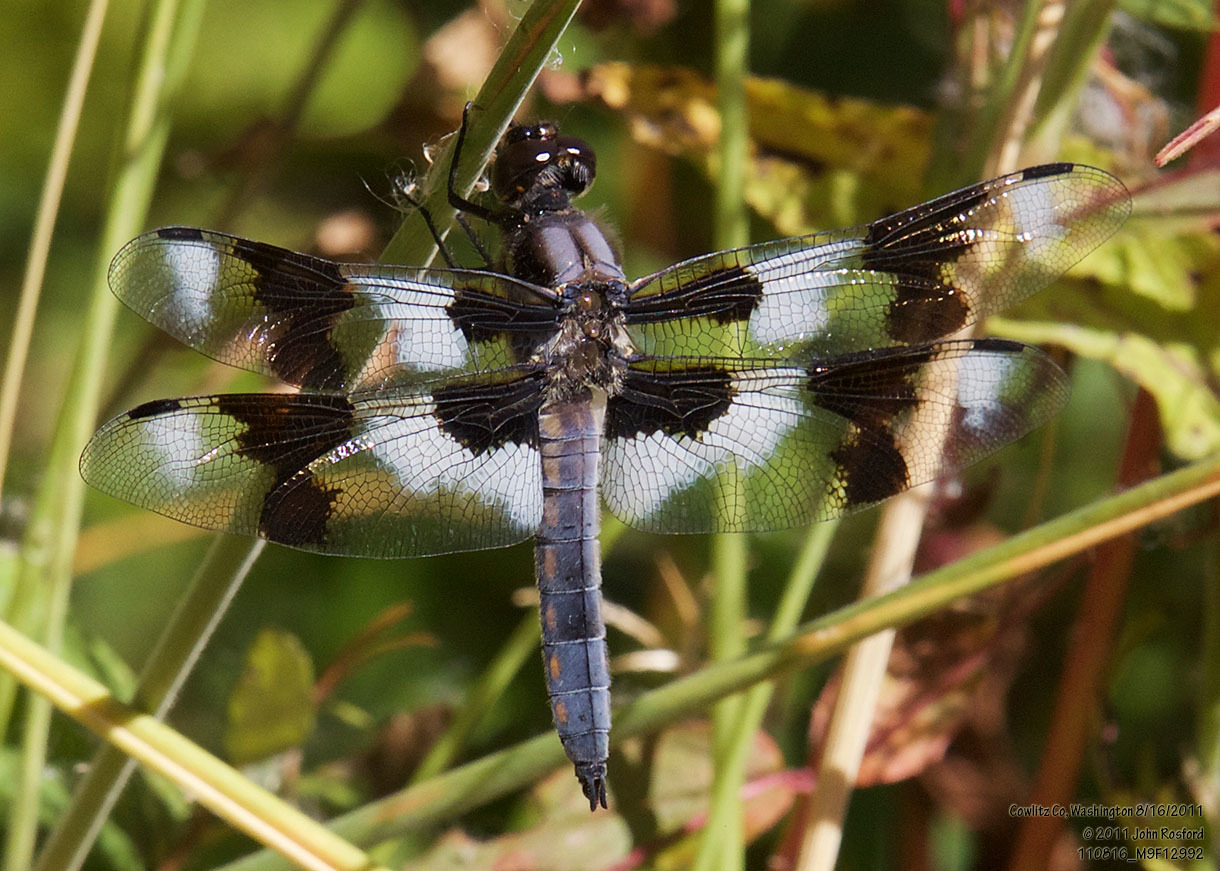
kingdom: Animalia
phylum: Arthropoda
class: Insecta
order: Odonata
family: Libellulidae
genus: Libellula
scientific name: Libellula forensis
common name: Eight-spotted skimmer
